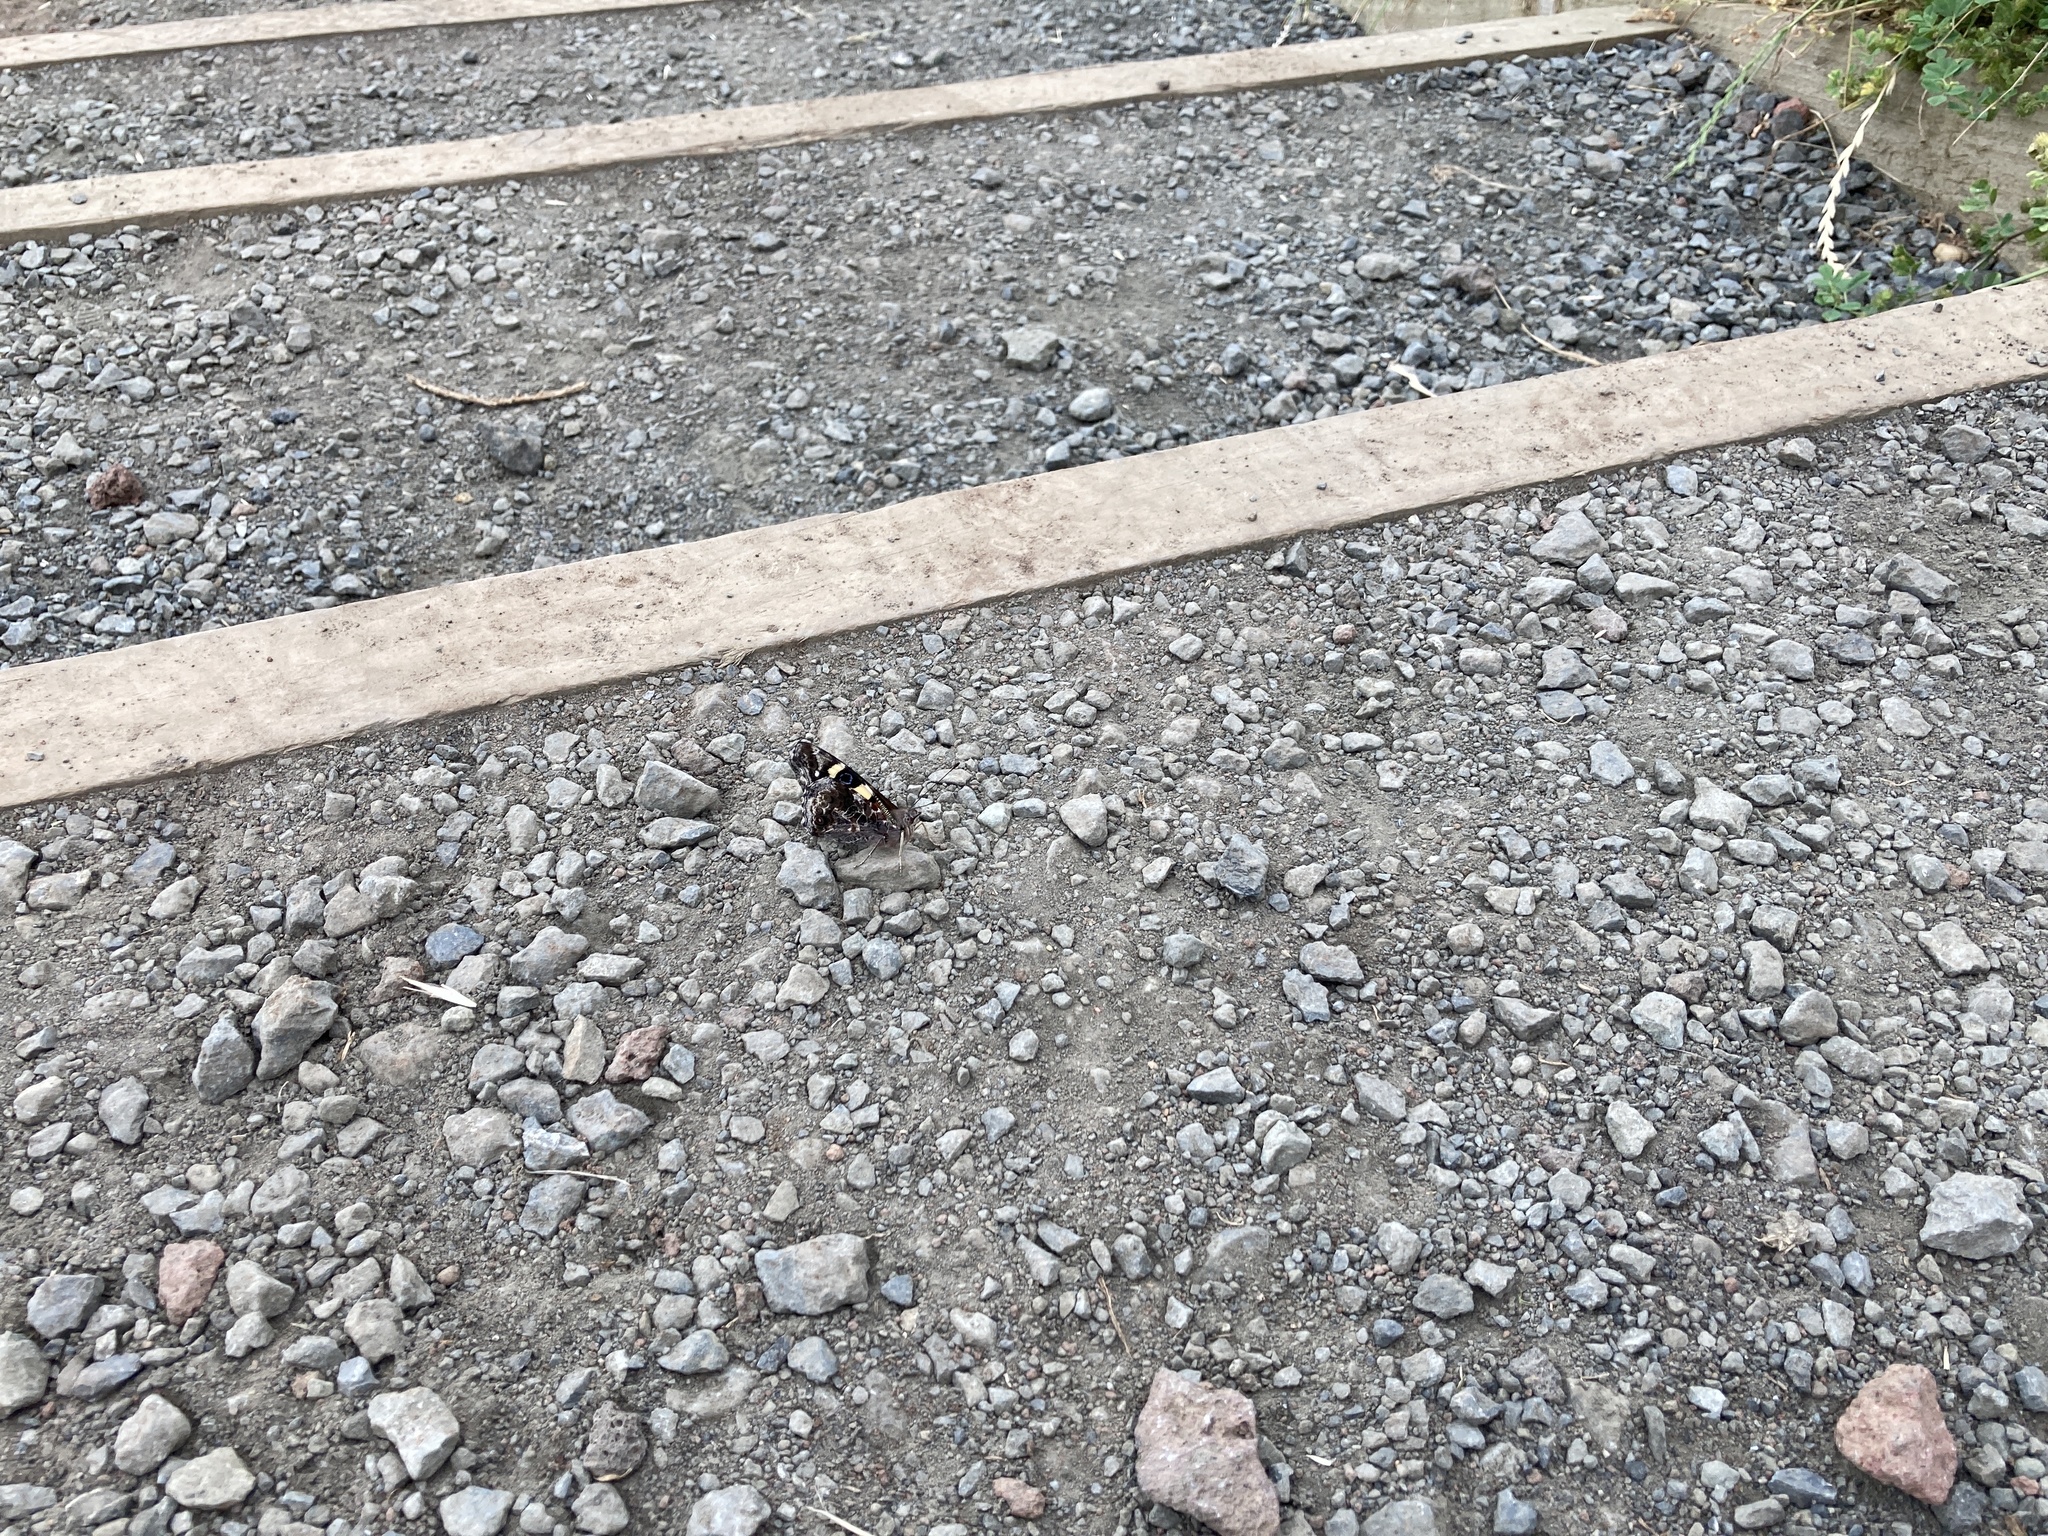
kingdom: Animalia
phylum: Arthropoda
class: Insecta
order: Lepidoptera
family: Nymphalidae
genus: Vanessa
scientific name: Vanessa itea
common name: Yellow admiral
